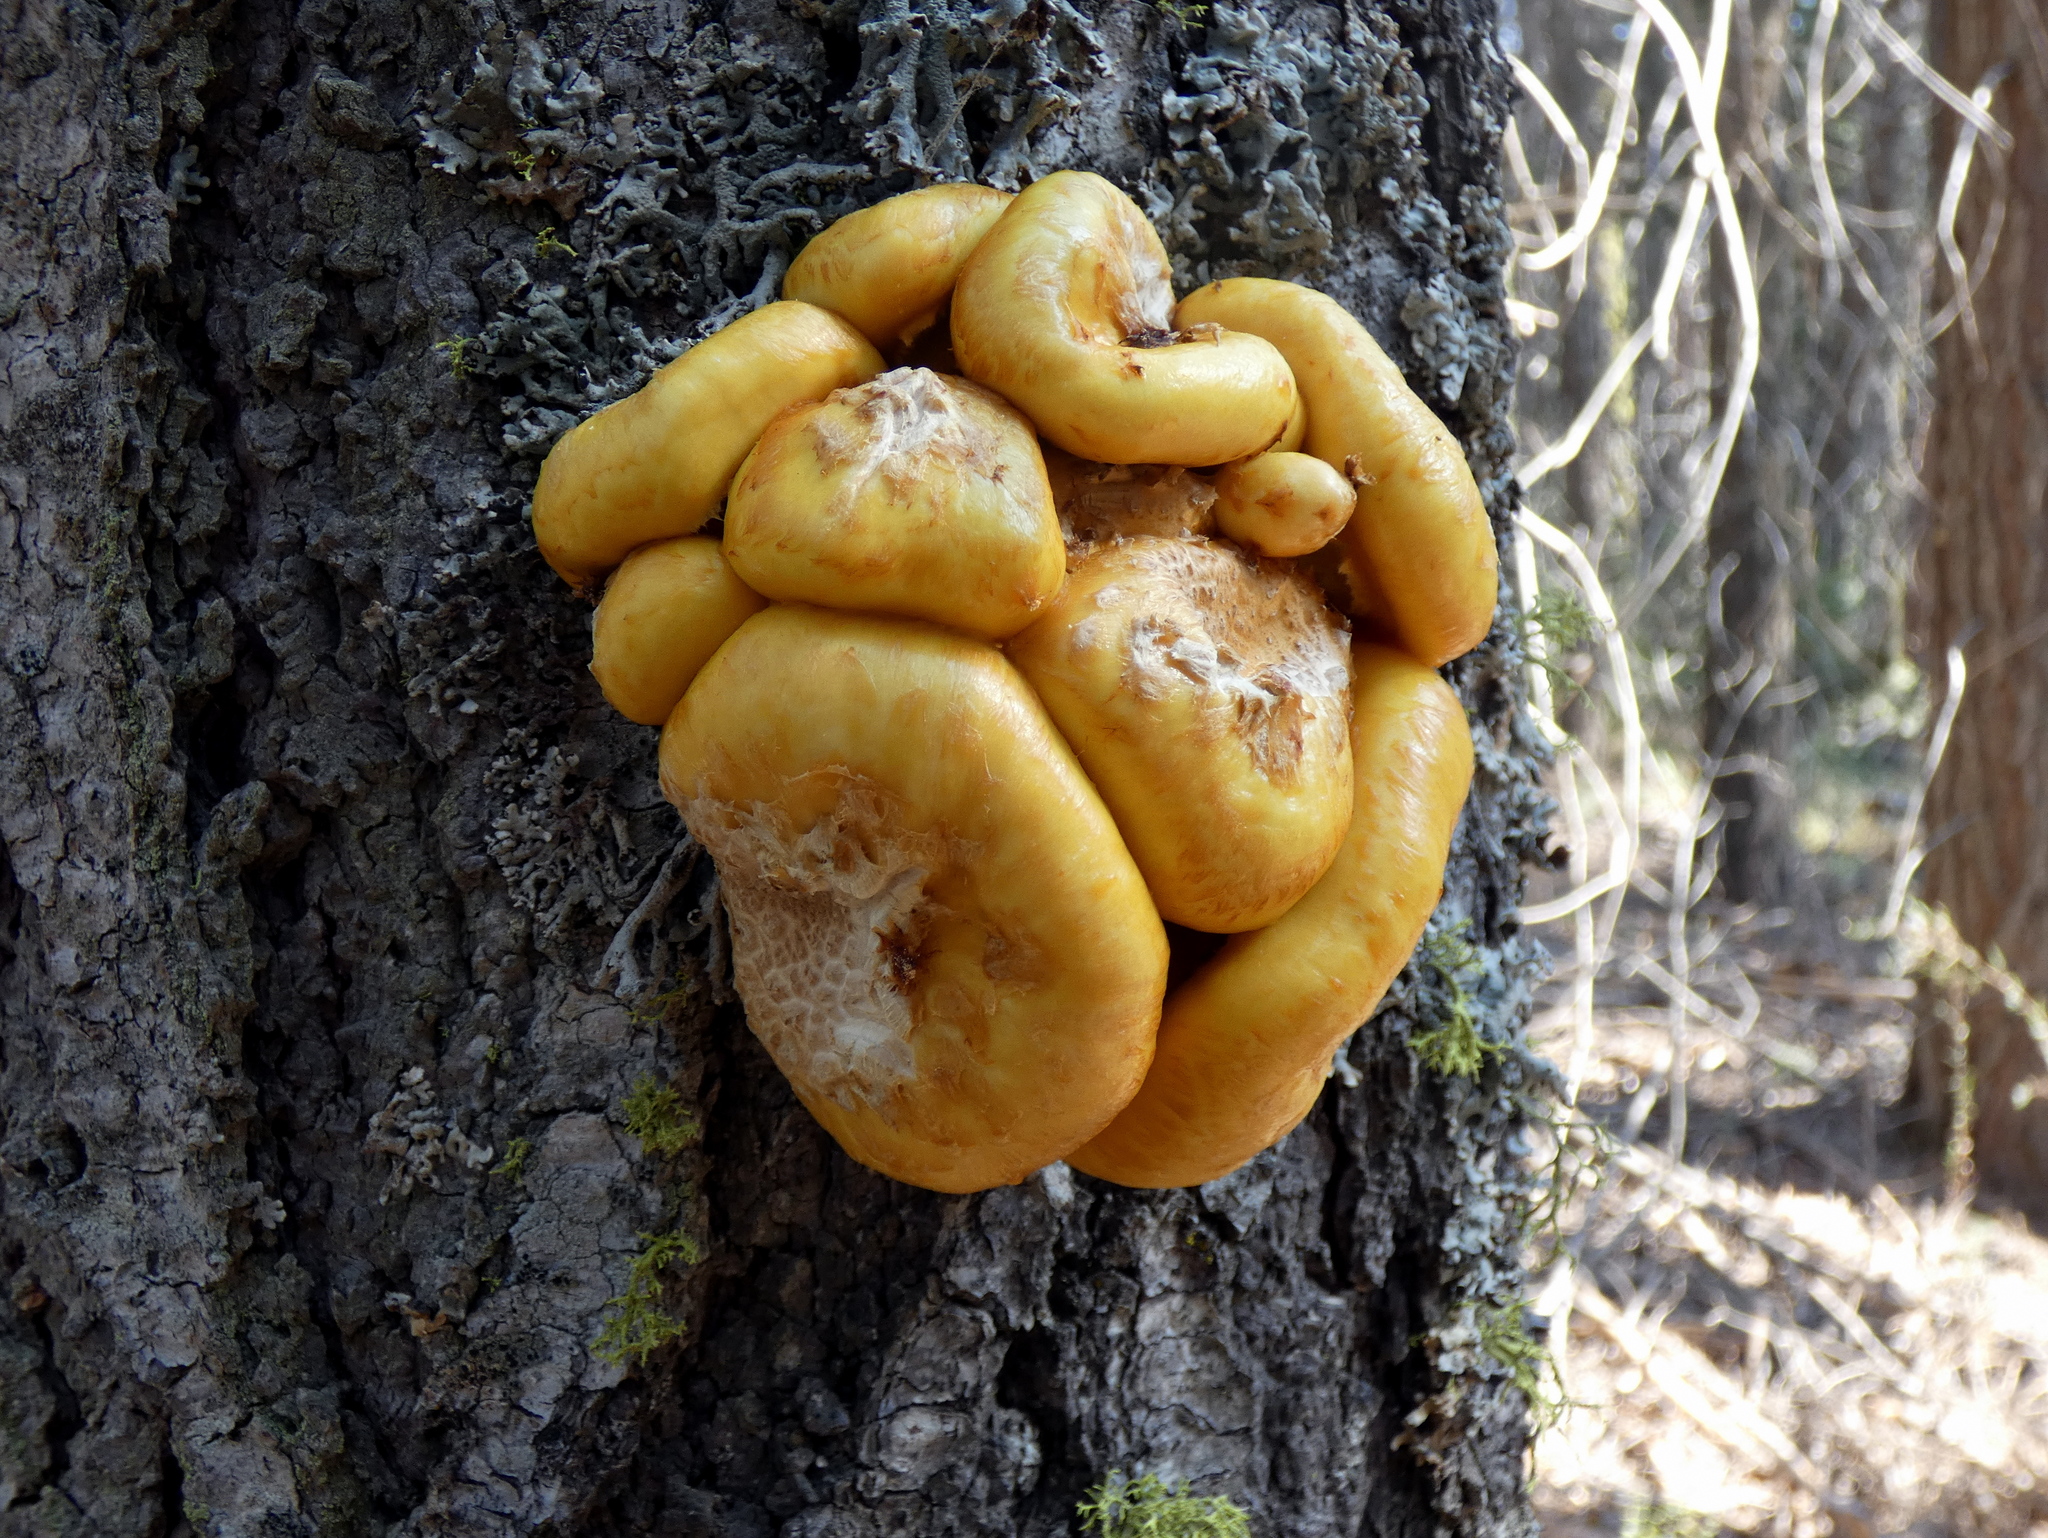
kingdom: Fungi
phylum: Basidiomycota
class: Agaricomycetes
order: Agaricales
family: Strophariaceae
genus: Pholiota
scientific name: Pholiota aurivella
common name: Golden scalycap
